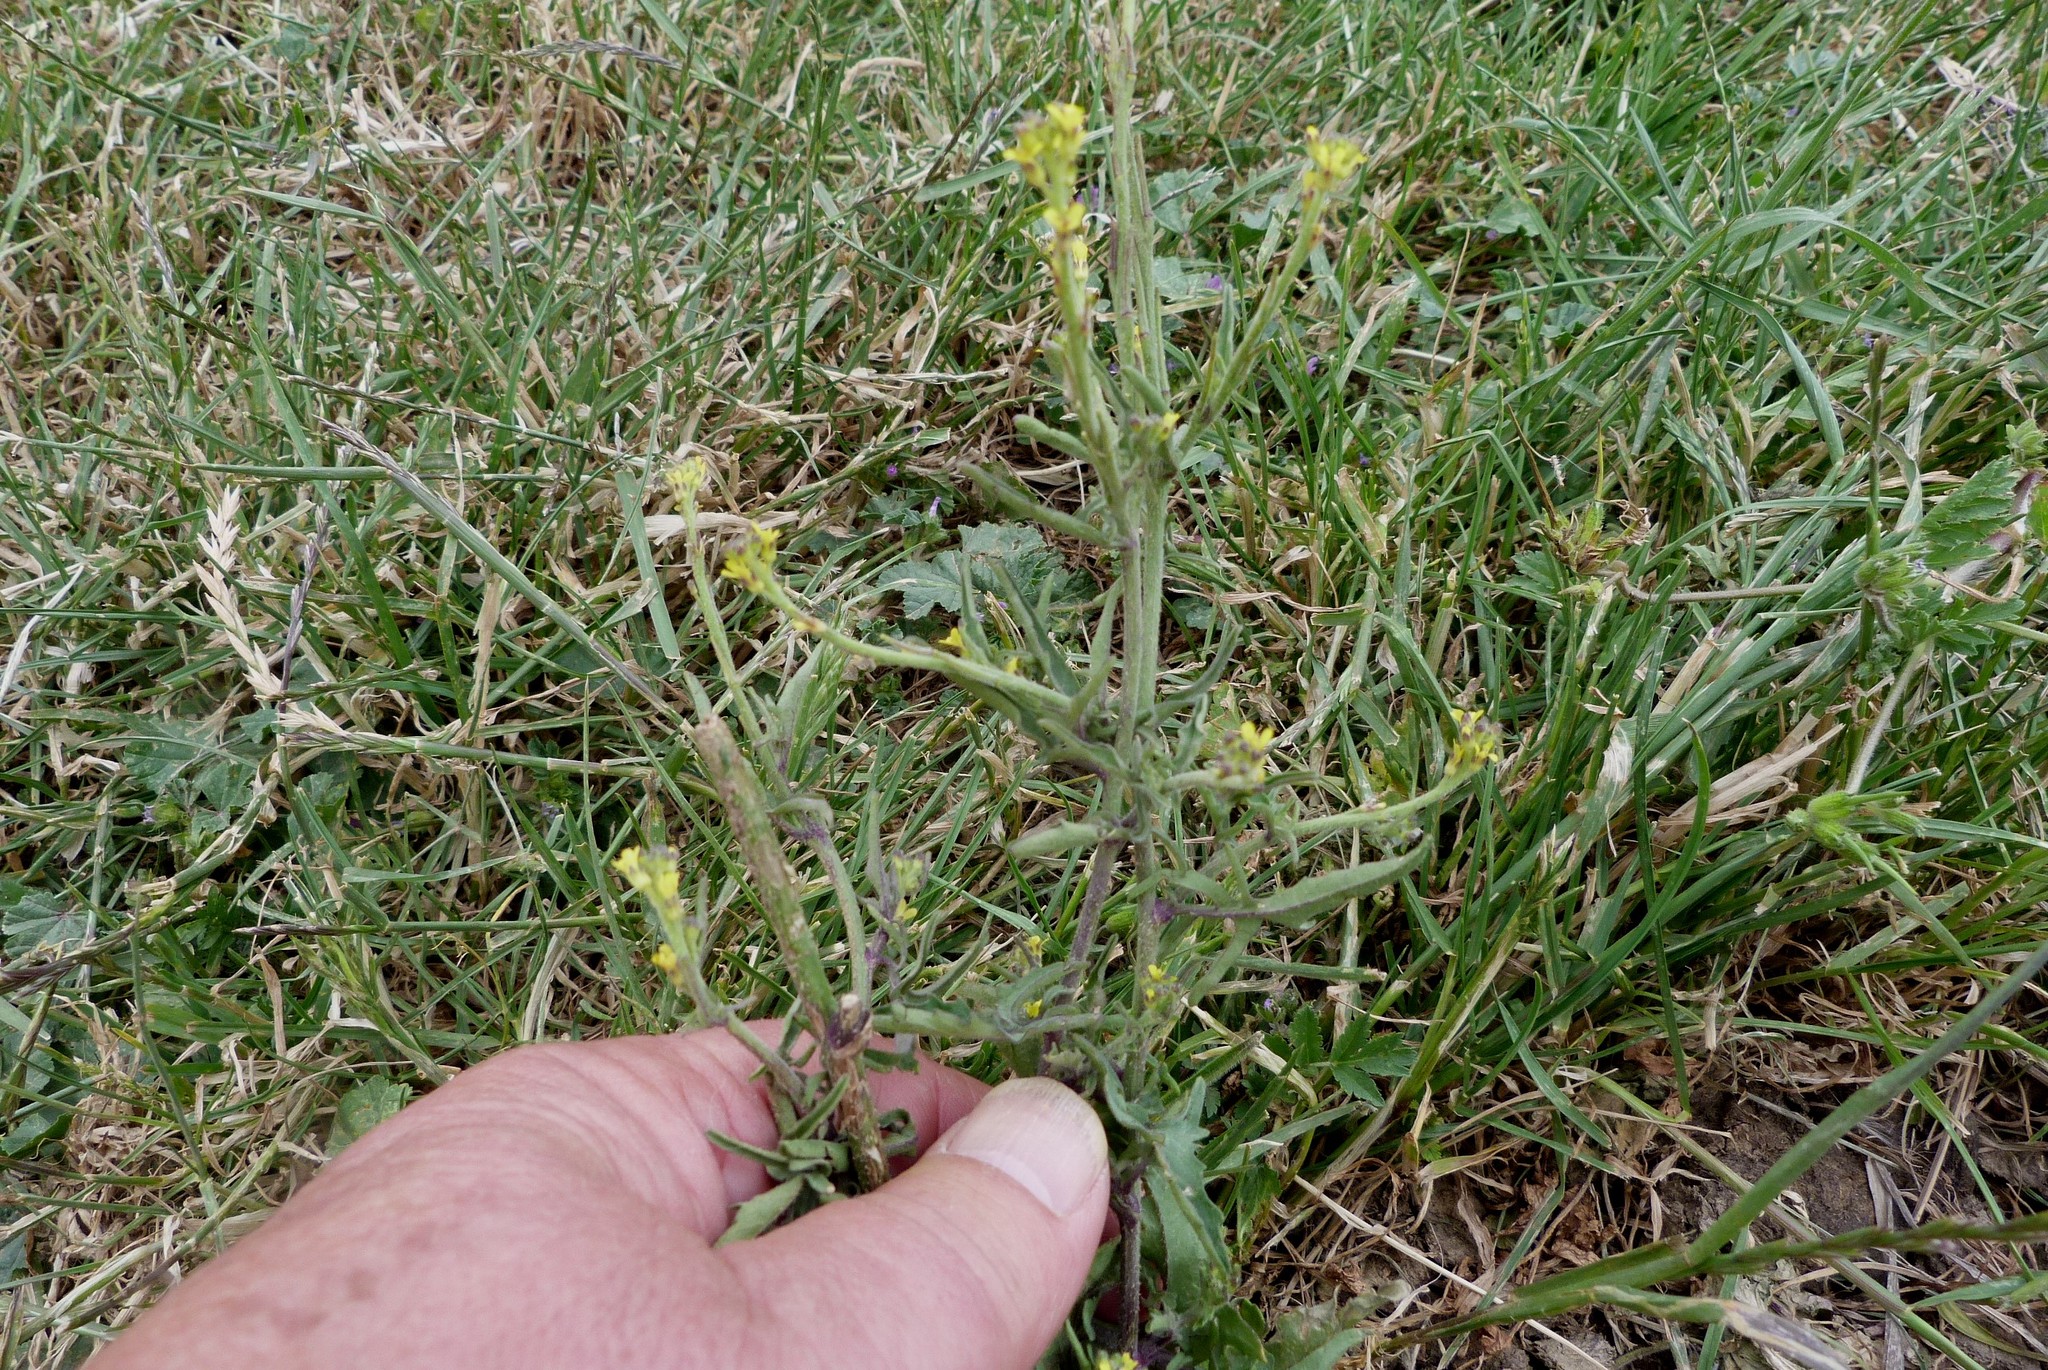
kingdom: Plantae
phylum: Tracheophyta
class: Magnoliopsida
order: Brassicales
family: Brassicaceae
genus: Sisymbrium
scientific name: Sisymbrium officinale
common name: Hedge mustard
